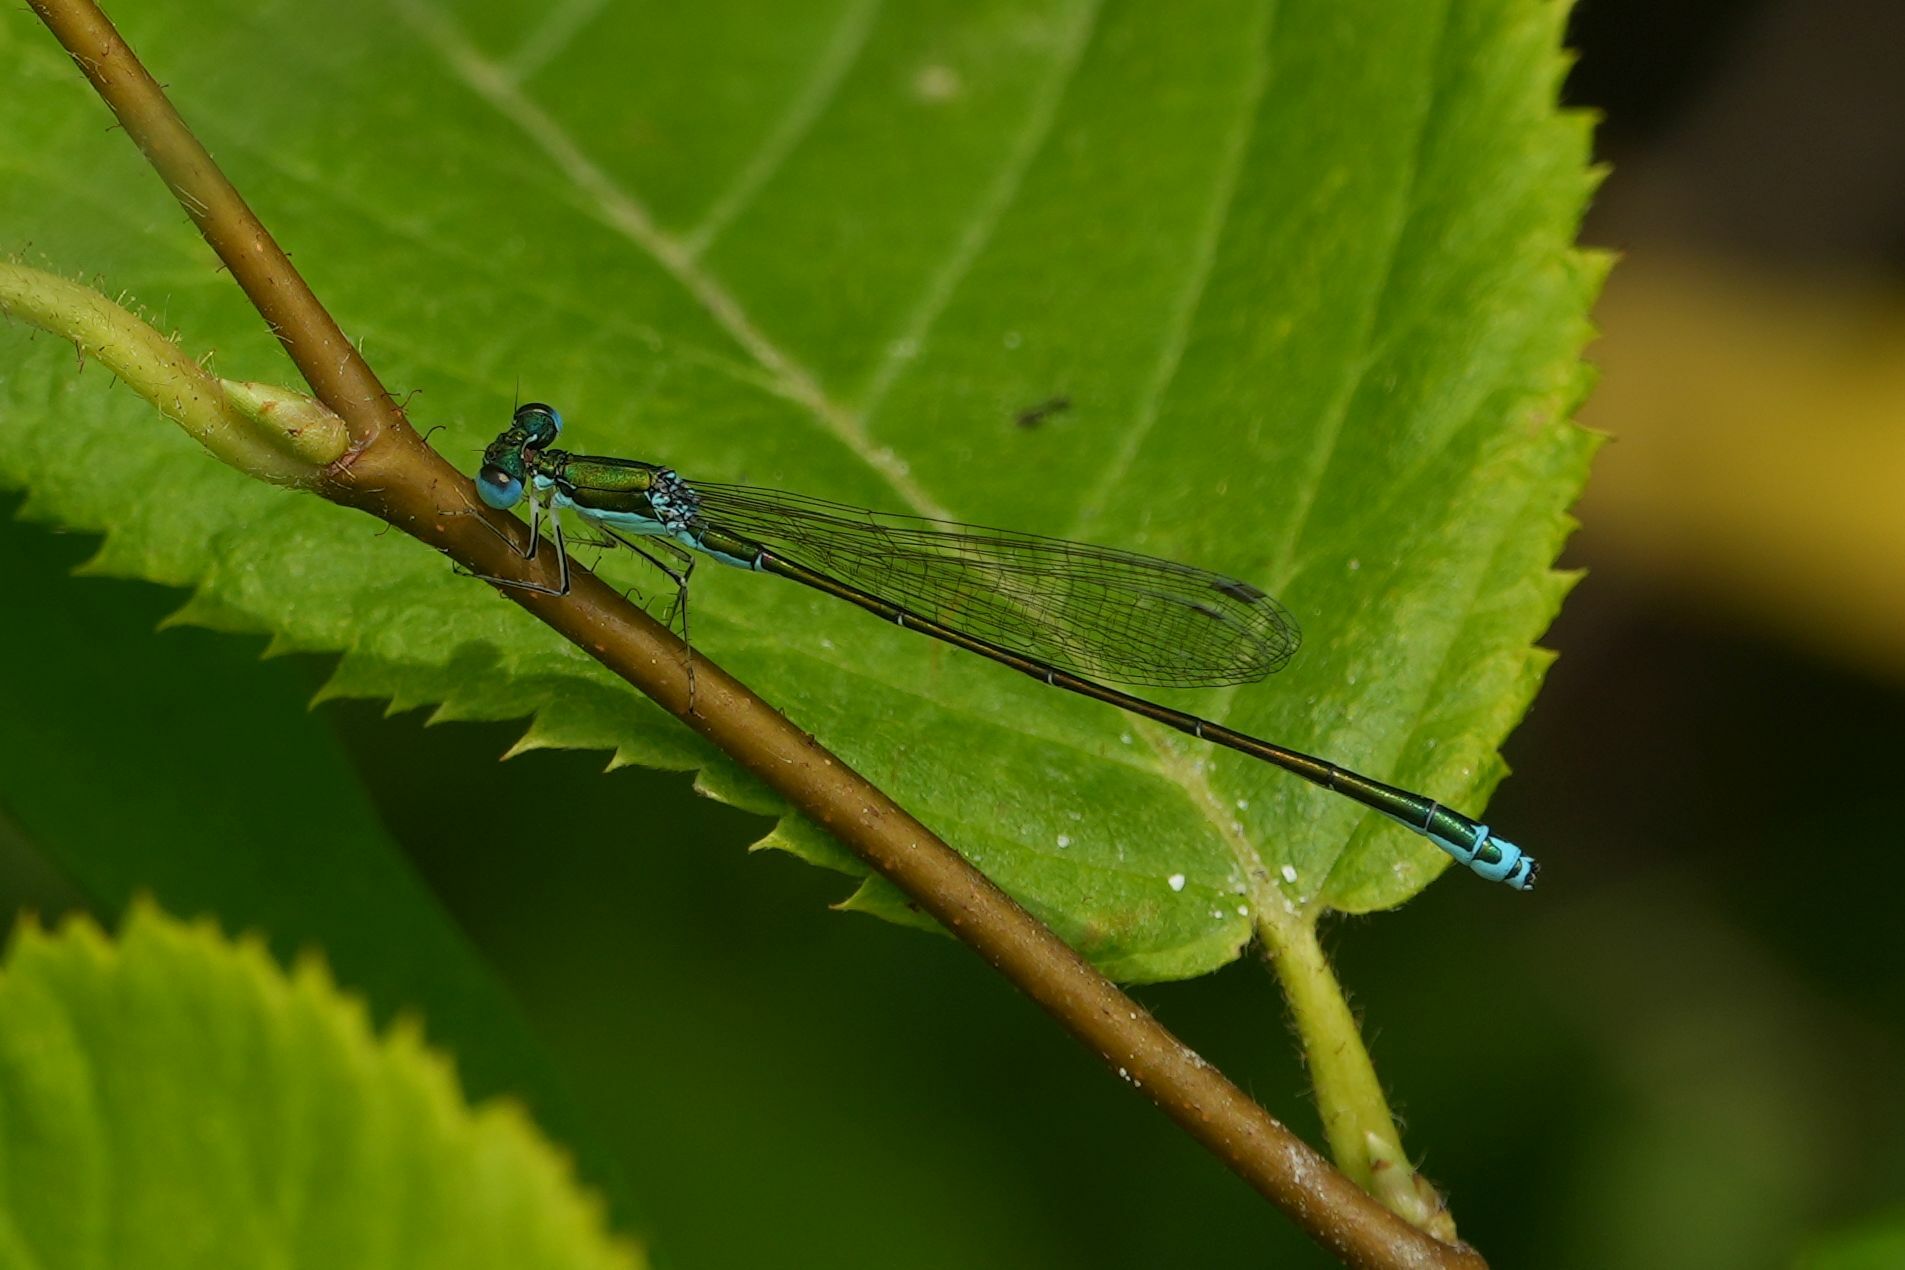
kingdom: Animalia
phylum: Arthropoda
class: Insecta
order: Odonata
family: Coenagrionidae
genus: Nehalennia
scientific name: Nehalennia irene
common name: Sedge sprite
